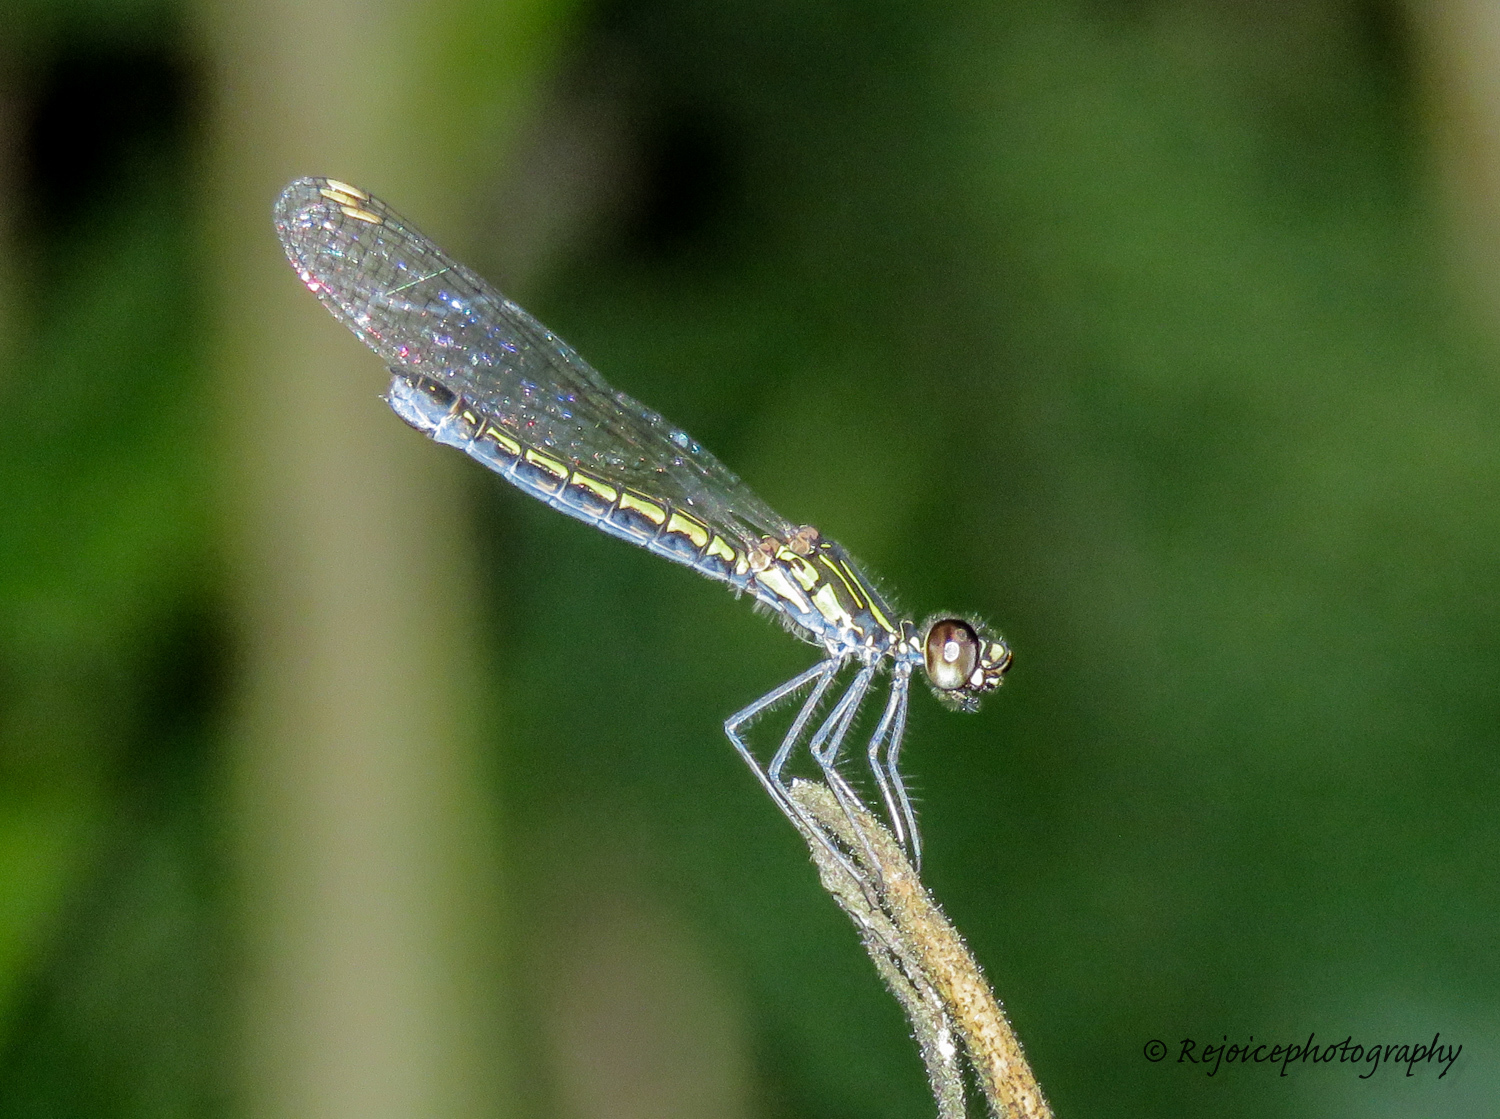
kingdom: Animalia
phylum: Arthropoda
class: Insecta
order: Odonata
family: Chlorocyphidae
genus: Libellago
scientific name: Libellago lineata
